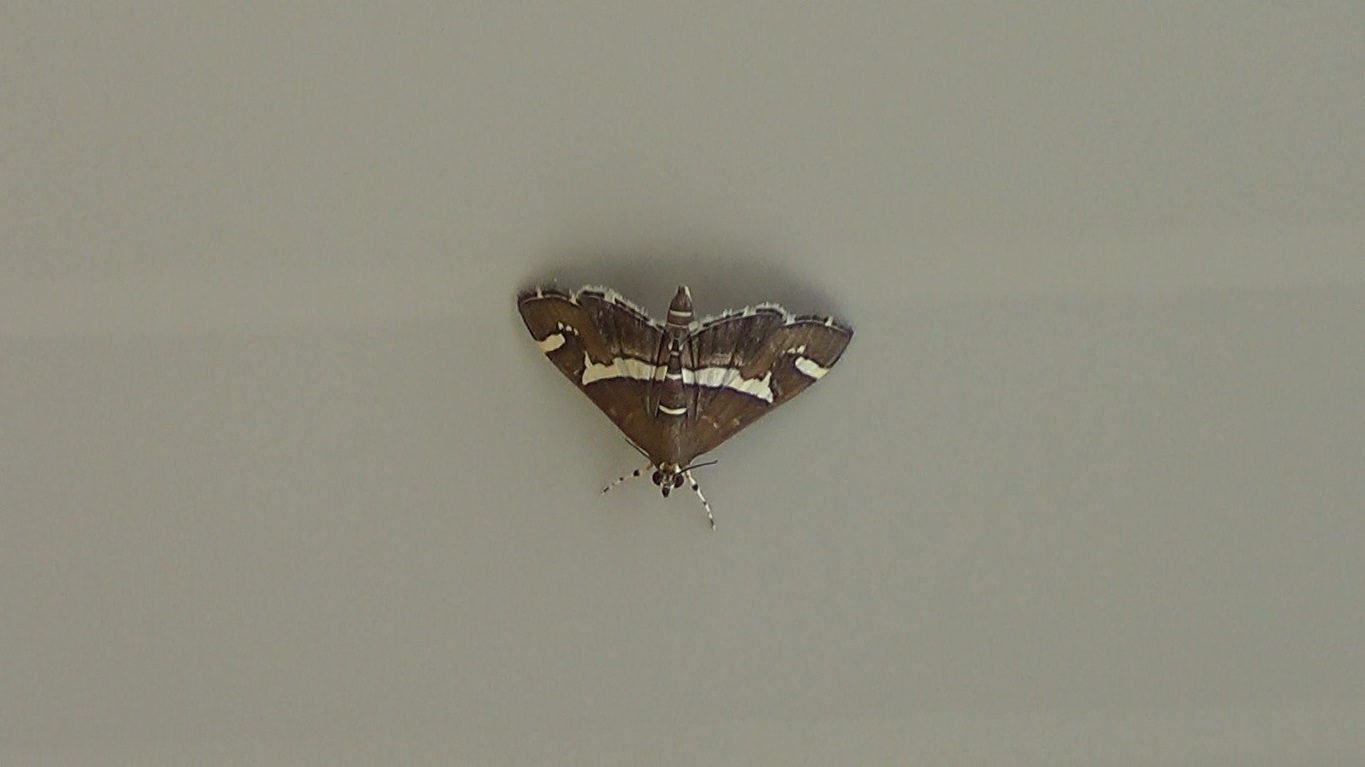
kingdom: Animalia
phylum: Arthropoda
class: Insecta
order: Lepidoptera
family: Crambidae
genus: Spoladea
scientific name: Spoladea recurvalis
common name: Beet webworm moth
